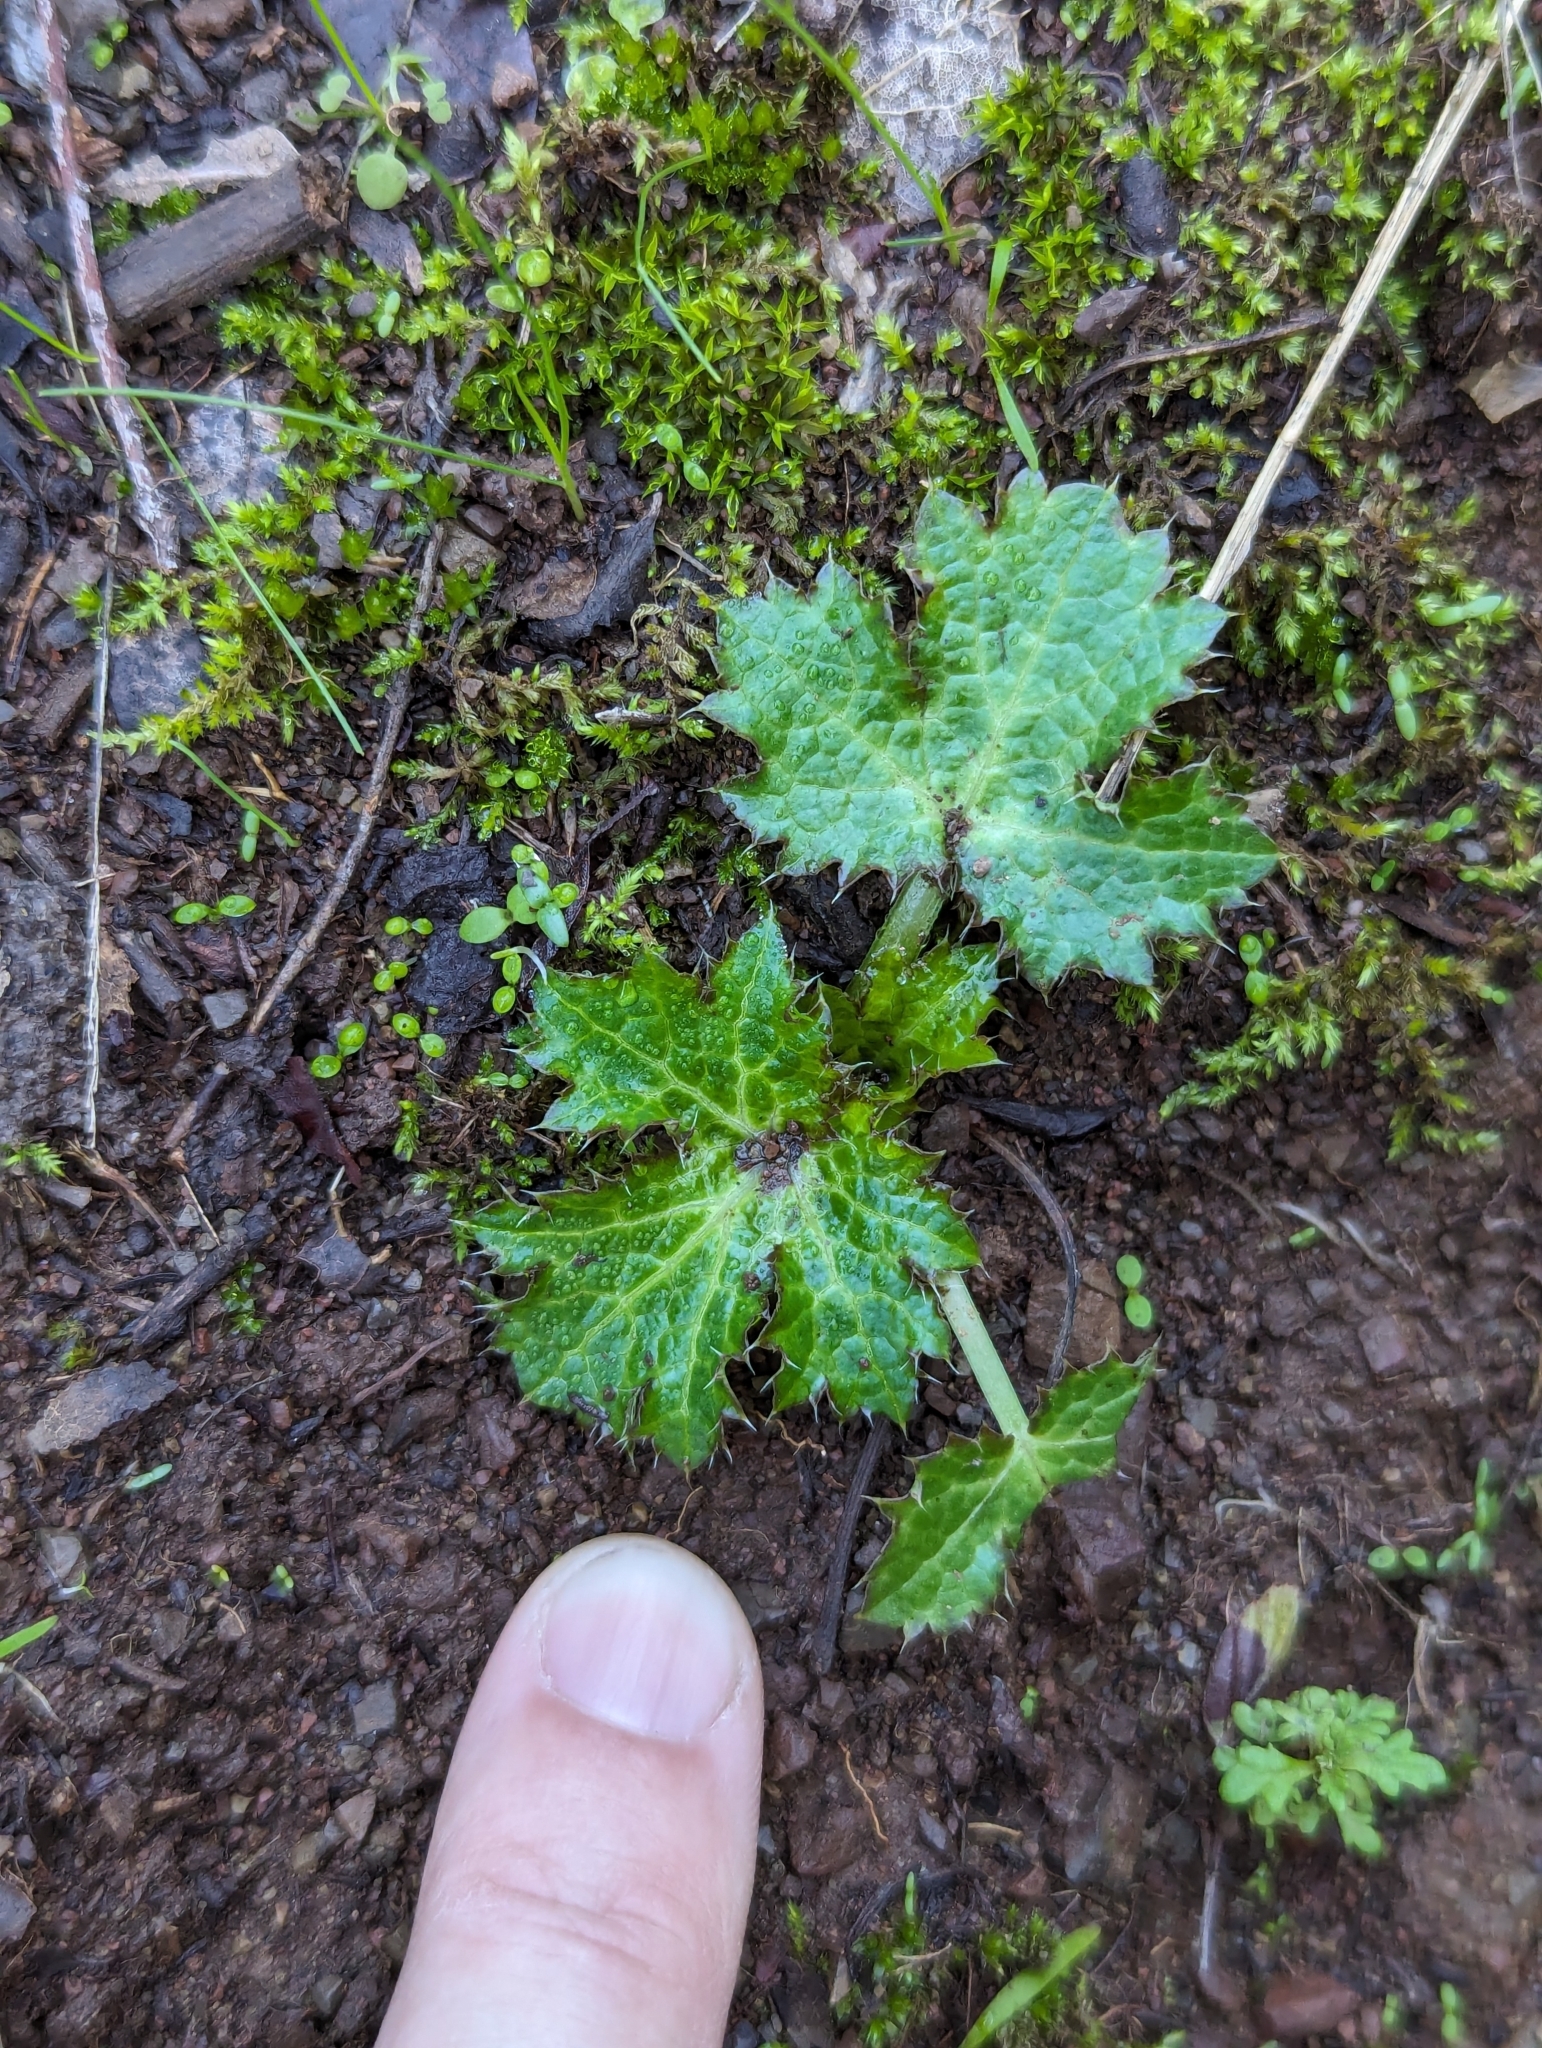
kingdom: Plantae
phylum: Tracheophyta
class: Magnoliopsida
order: Apiales
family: Apiaceae
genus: Sanicula
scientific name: Sanicula crassicaulis
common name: Western snakeroot
